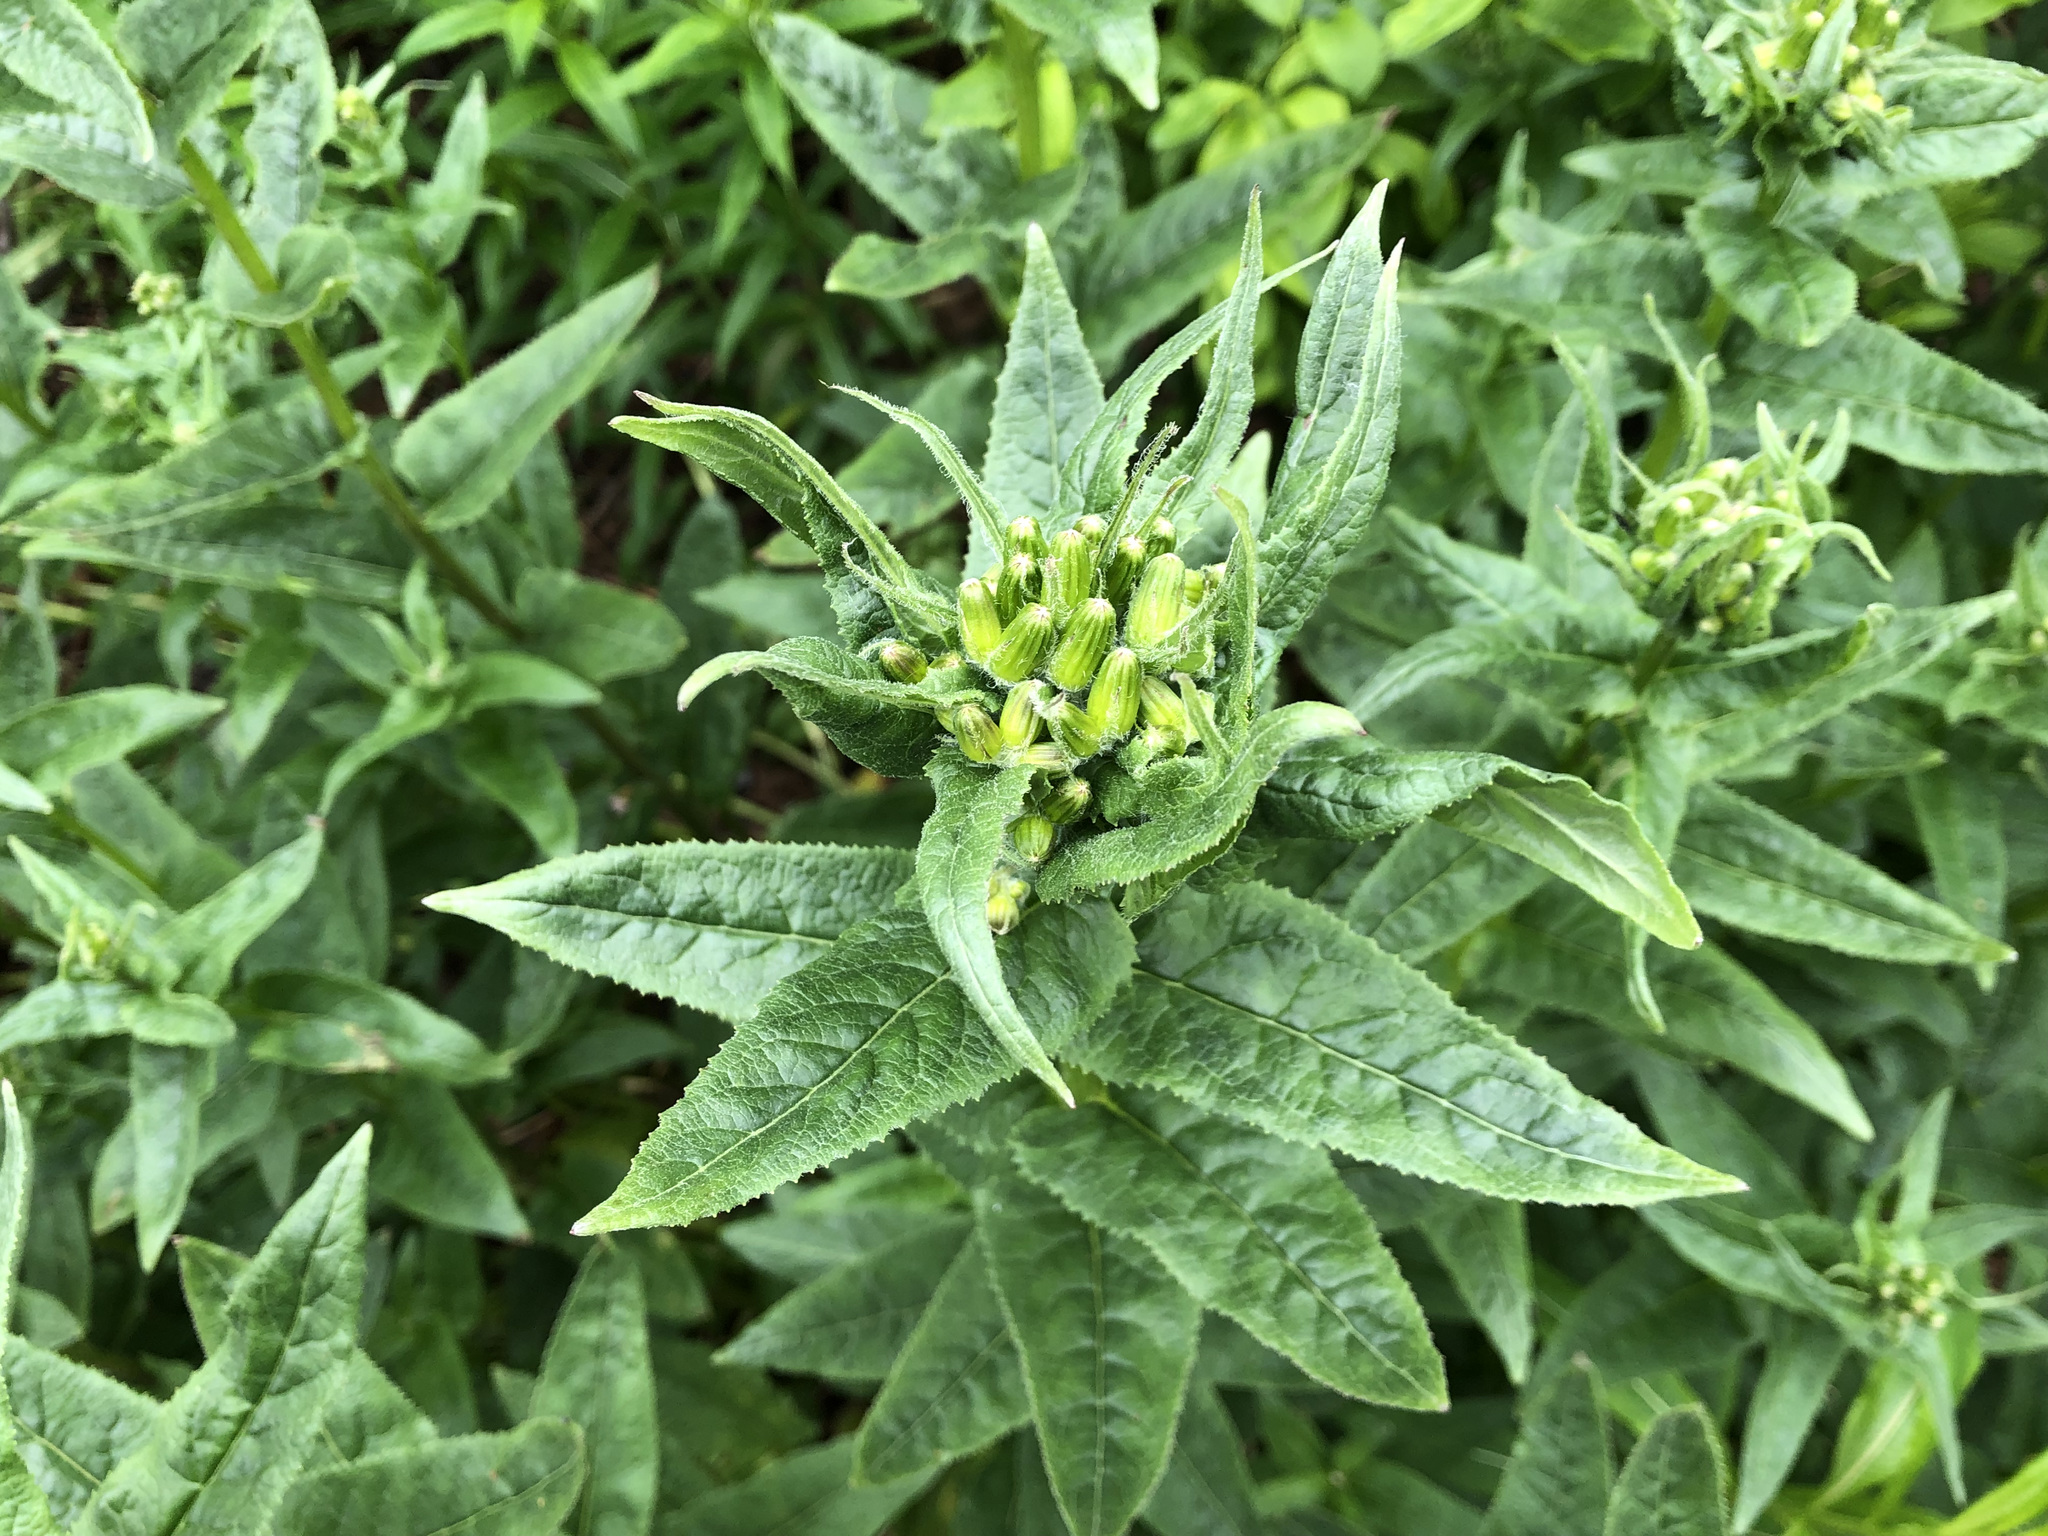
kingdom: Plantae
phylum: Tracheophyta
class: Magnoliopsida
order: Asterales
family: Asteraceae
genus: Senecio
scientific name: Senecio triangularis
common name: Arrowleaf butterweed
